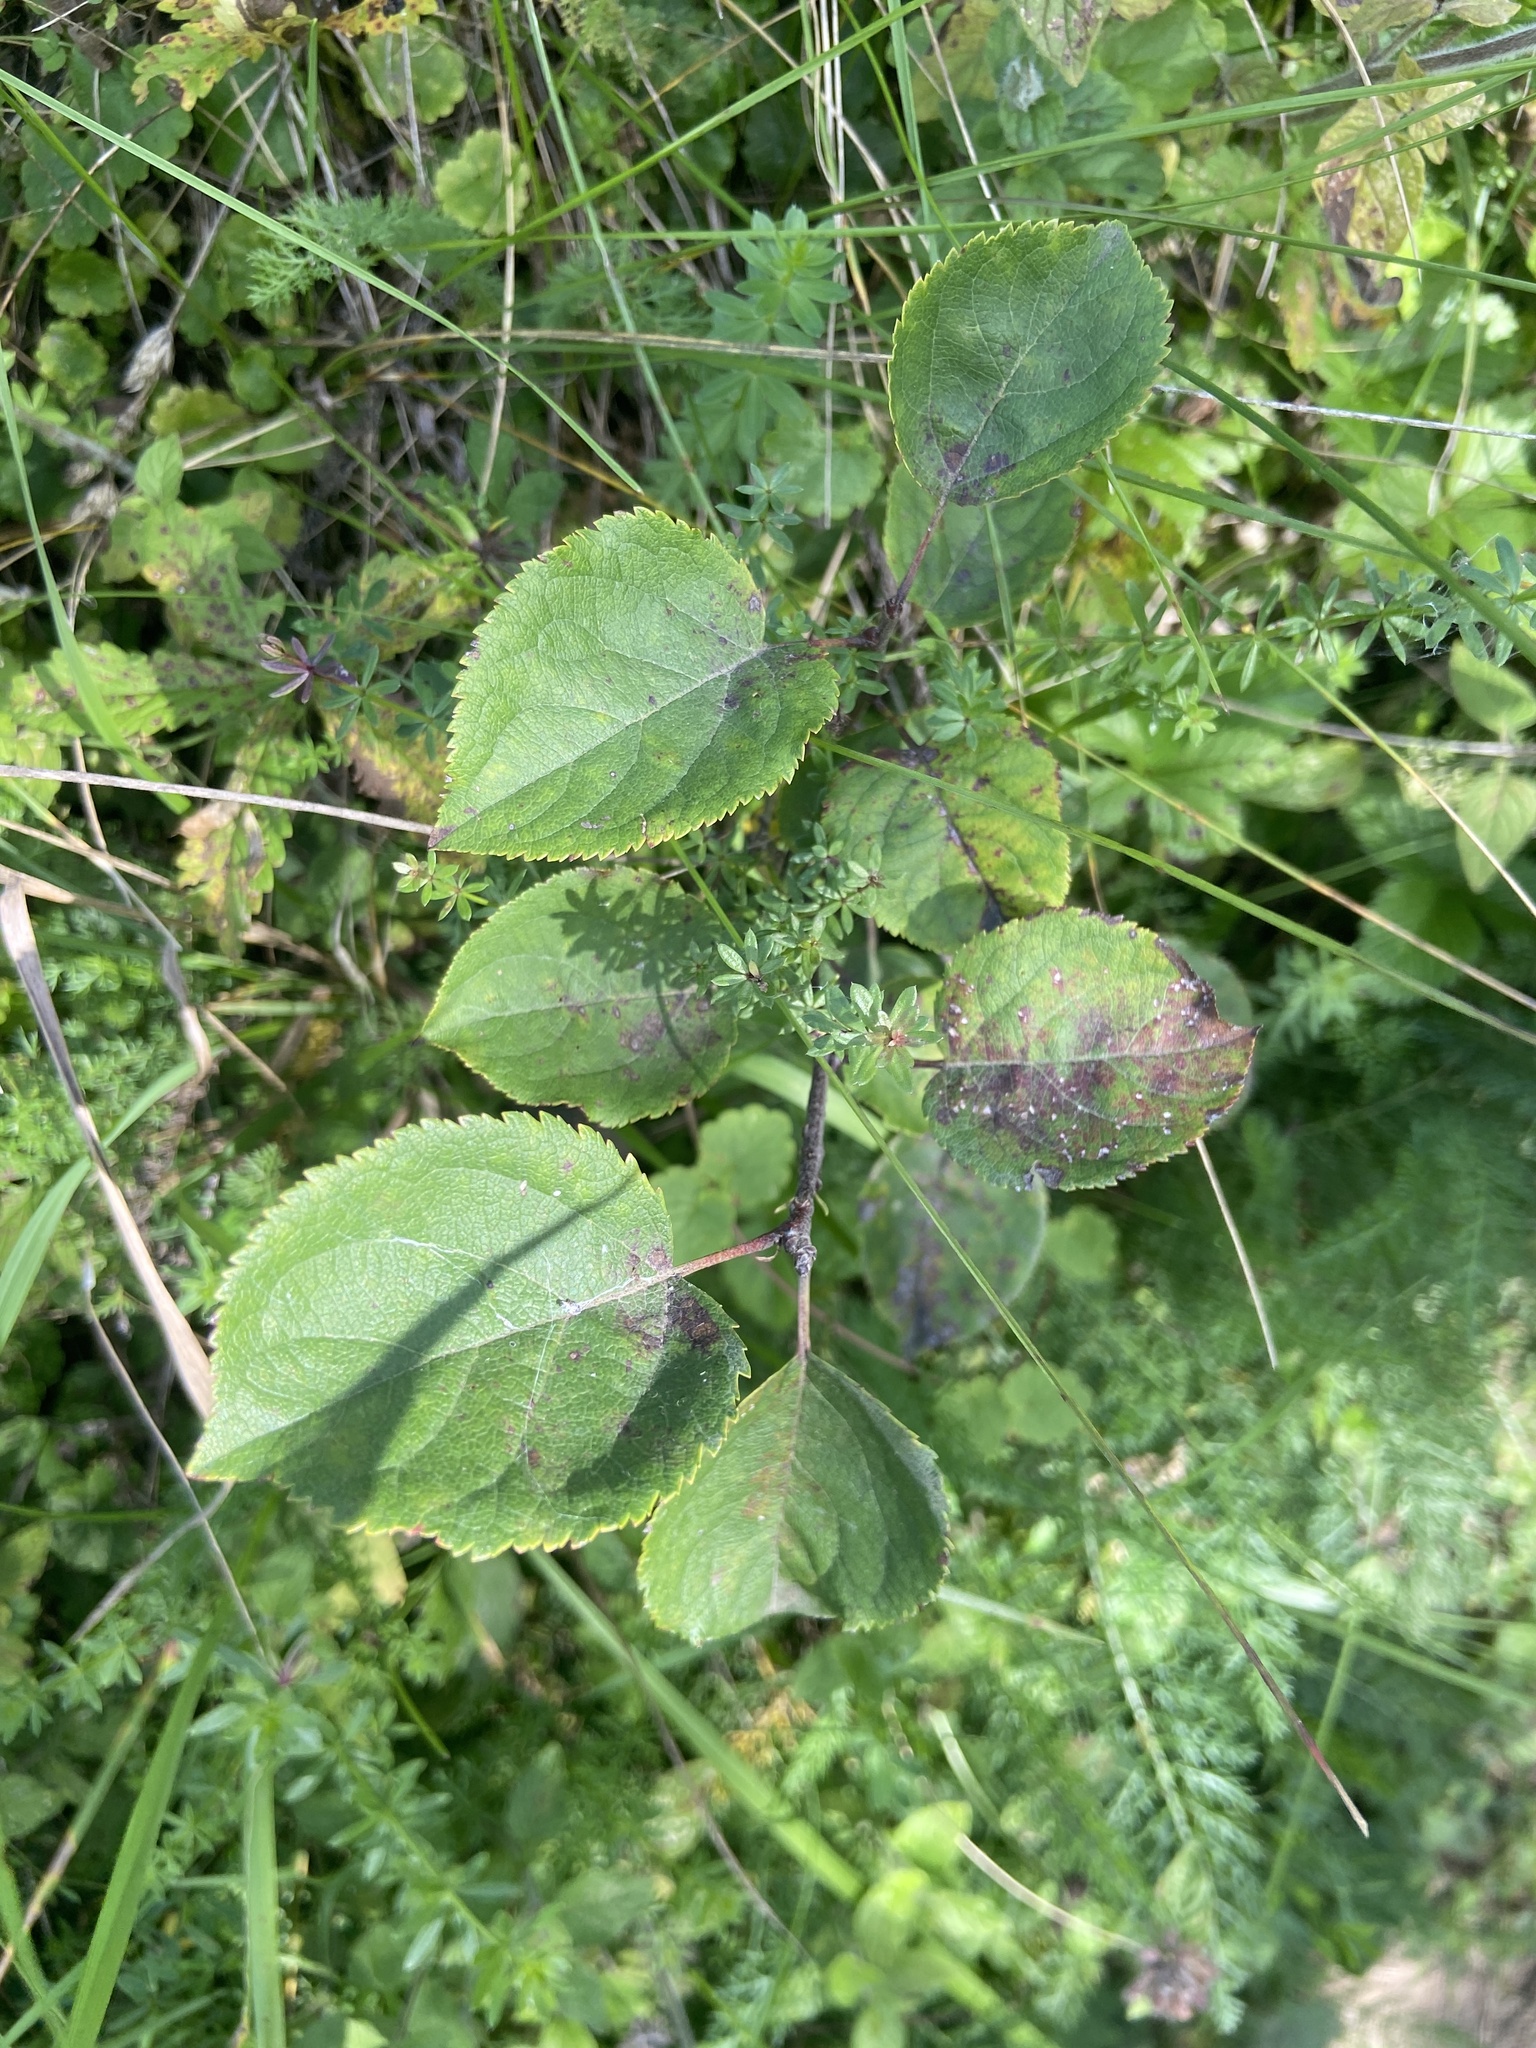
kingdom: Plantae
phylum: Tracheophyta
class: Magnoliopsida
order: Rosales
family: Rosaceae
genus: Malus
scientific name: Malus domestica
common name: Apple
